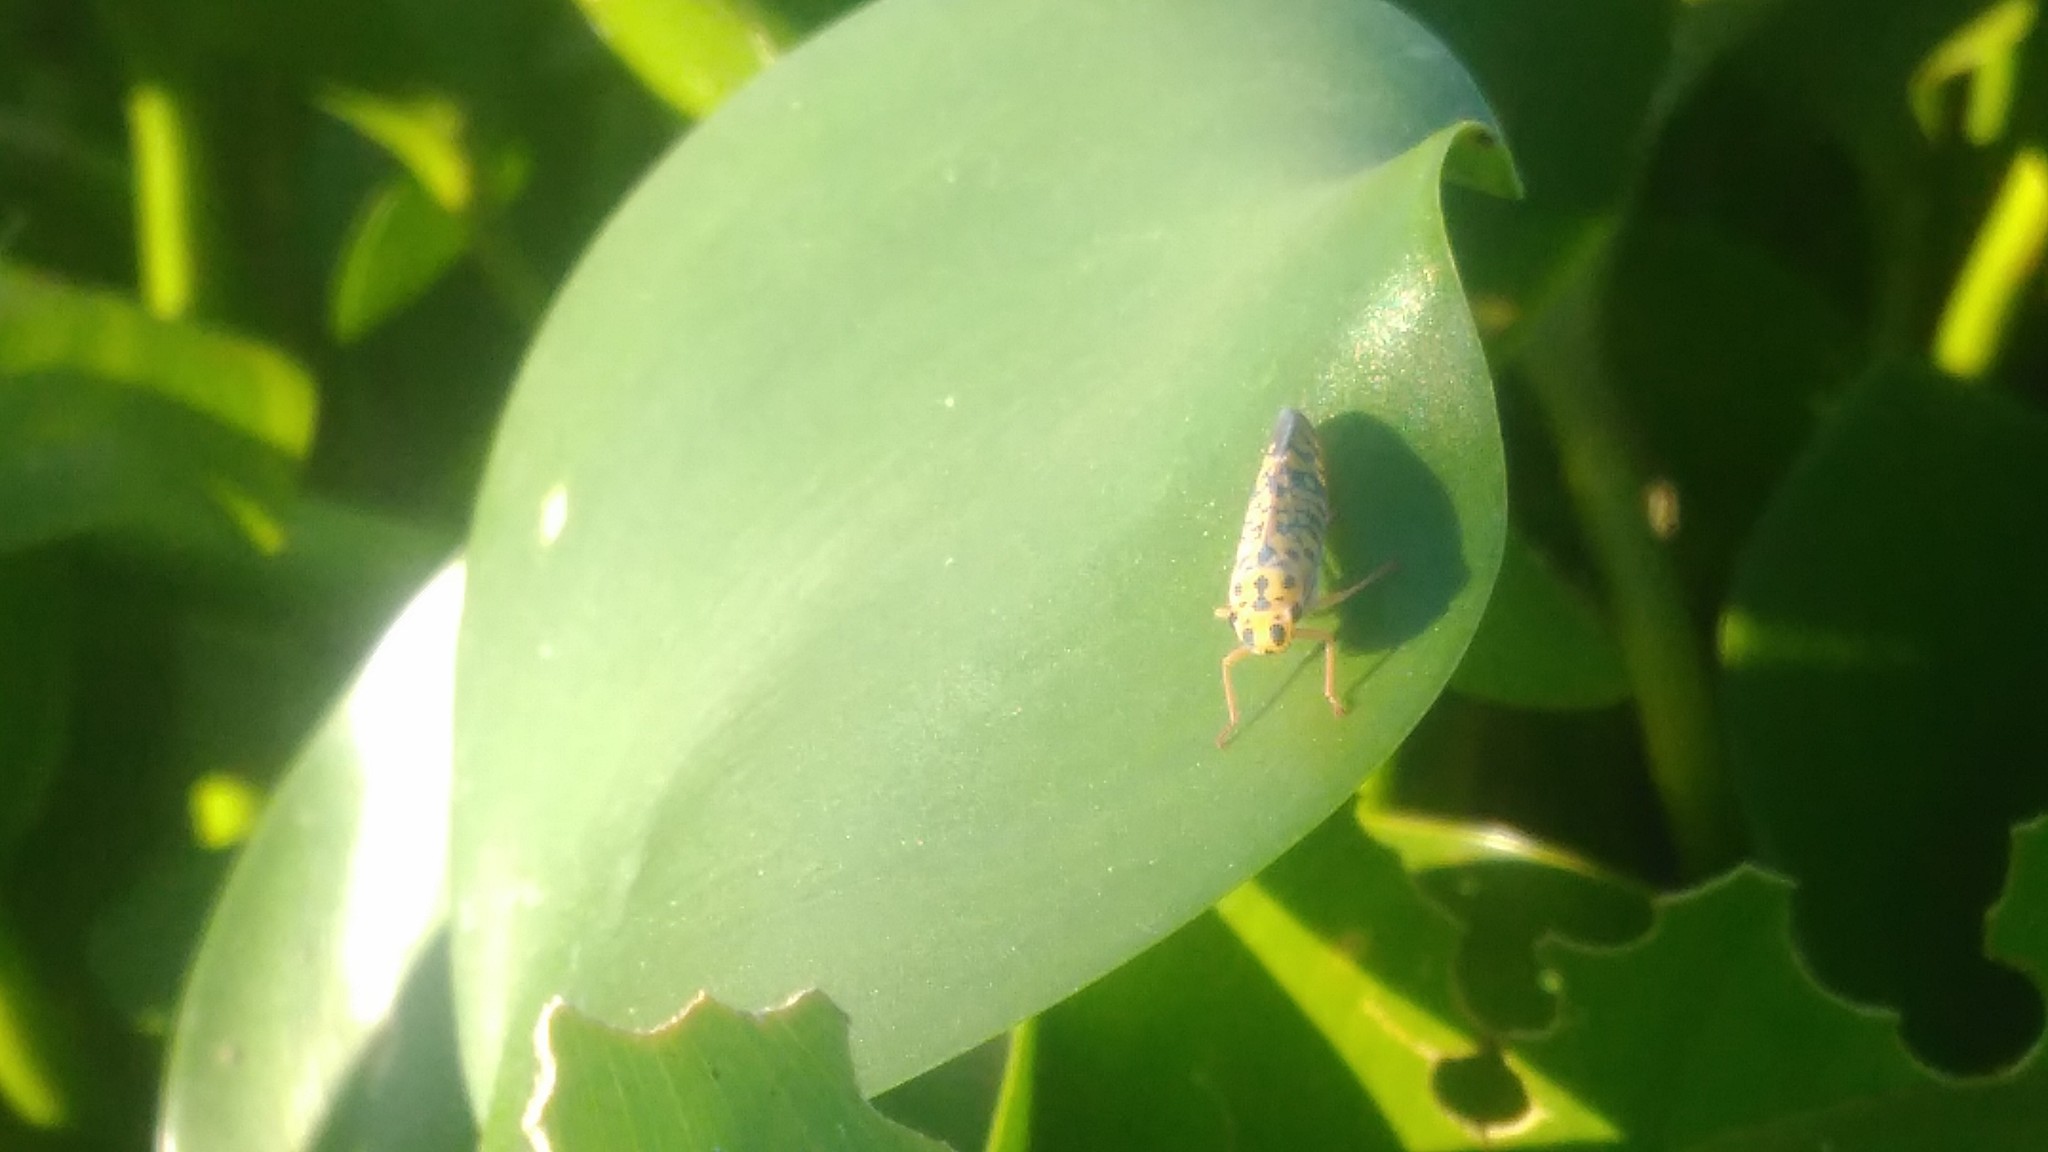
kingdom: Animalia
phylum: Arthropoda
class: Insecta
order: Hemiptera
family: Cicadellidae
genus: Pawiloma
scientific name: Pawiloma victima
